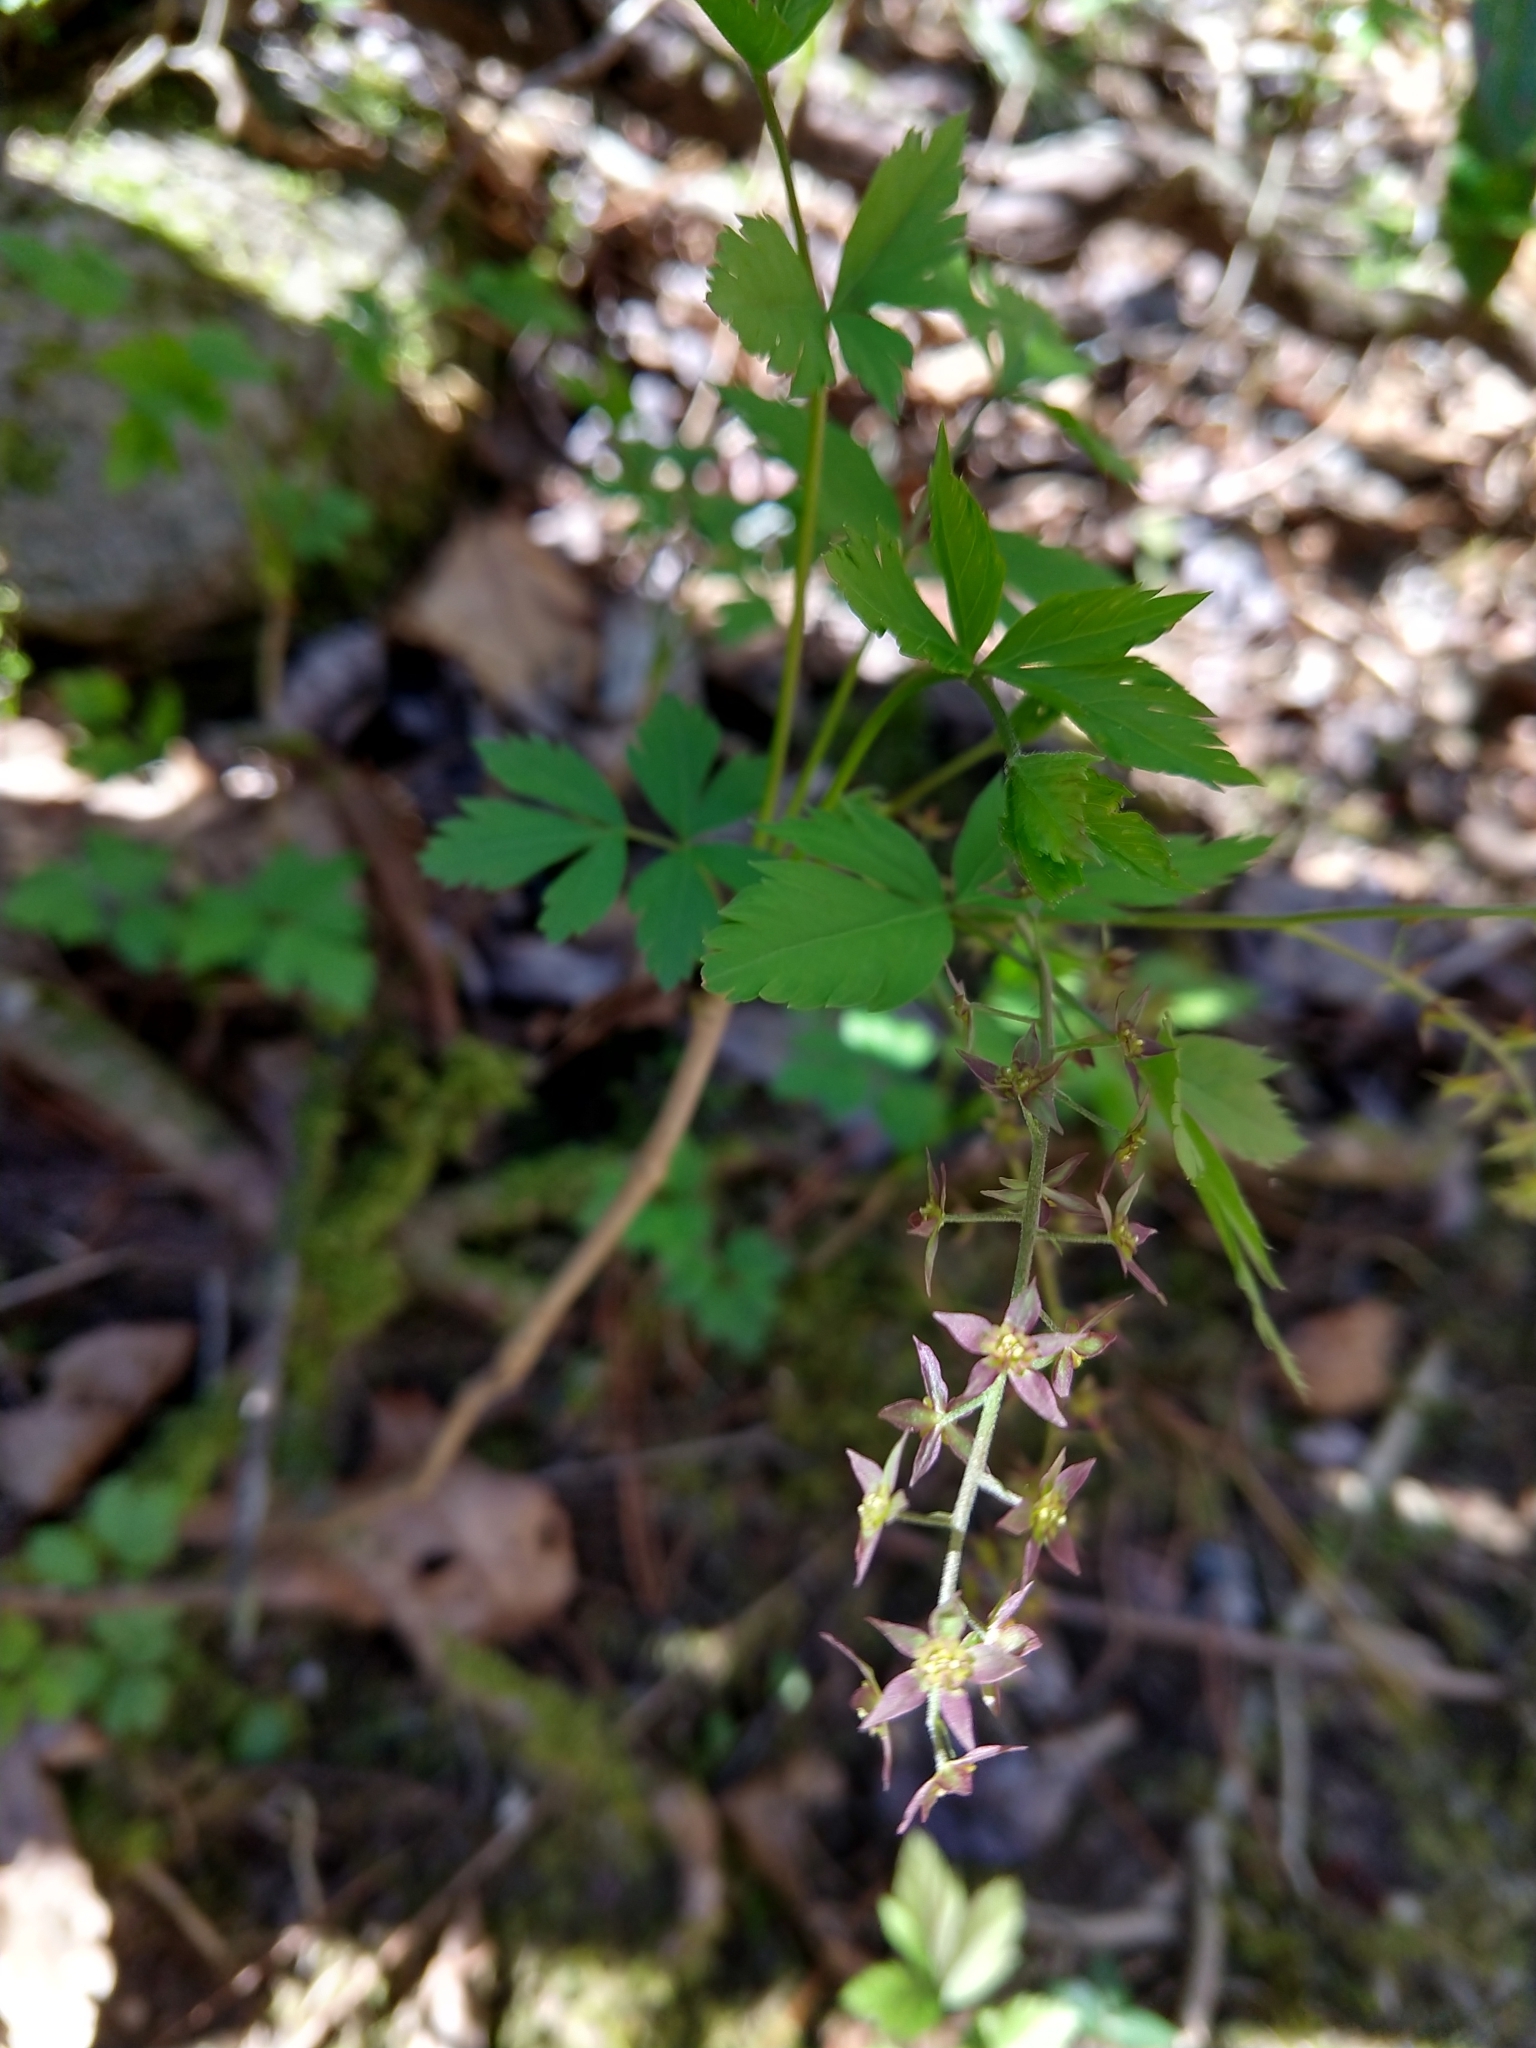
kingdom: Plantae
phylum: Tracheophyta
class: Magnoliopsida
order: Ranunculales
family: Ranunculaceae
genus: Xanthorhiza
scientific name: Xanthorhiza simplicissima
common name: Yellowroot
